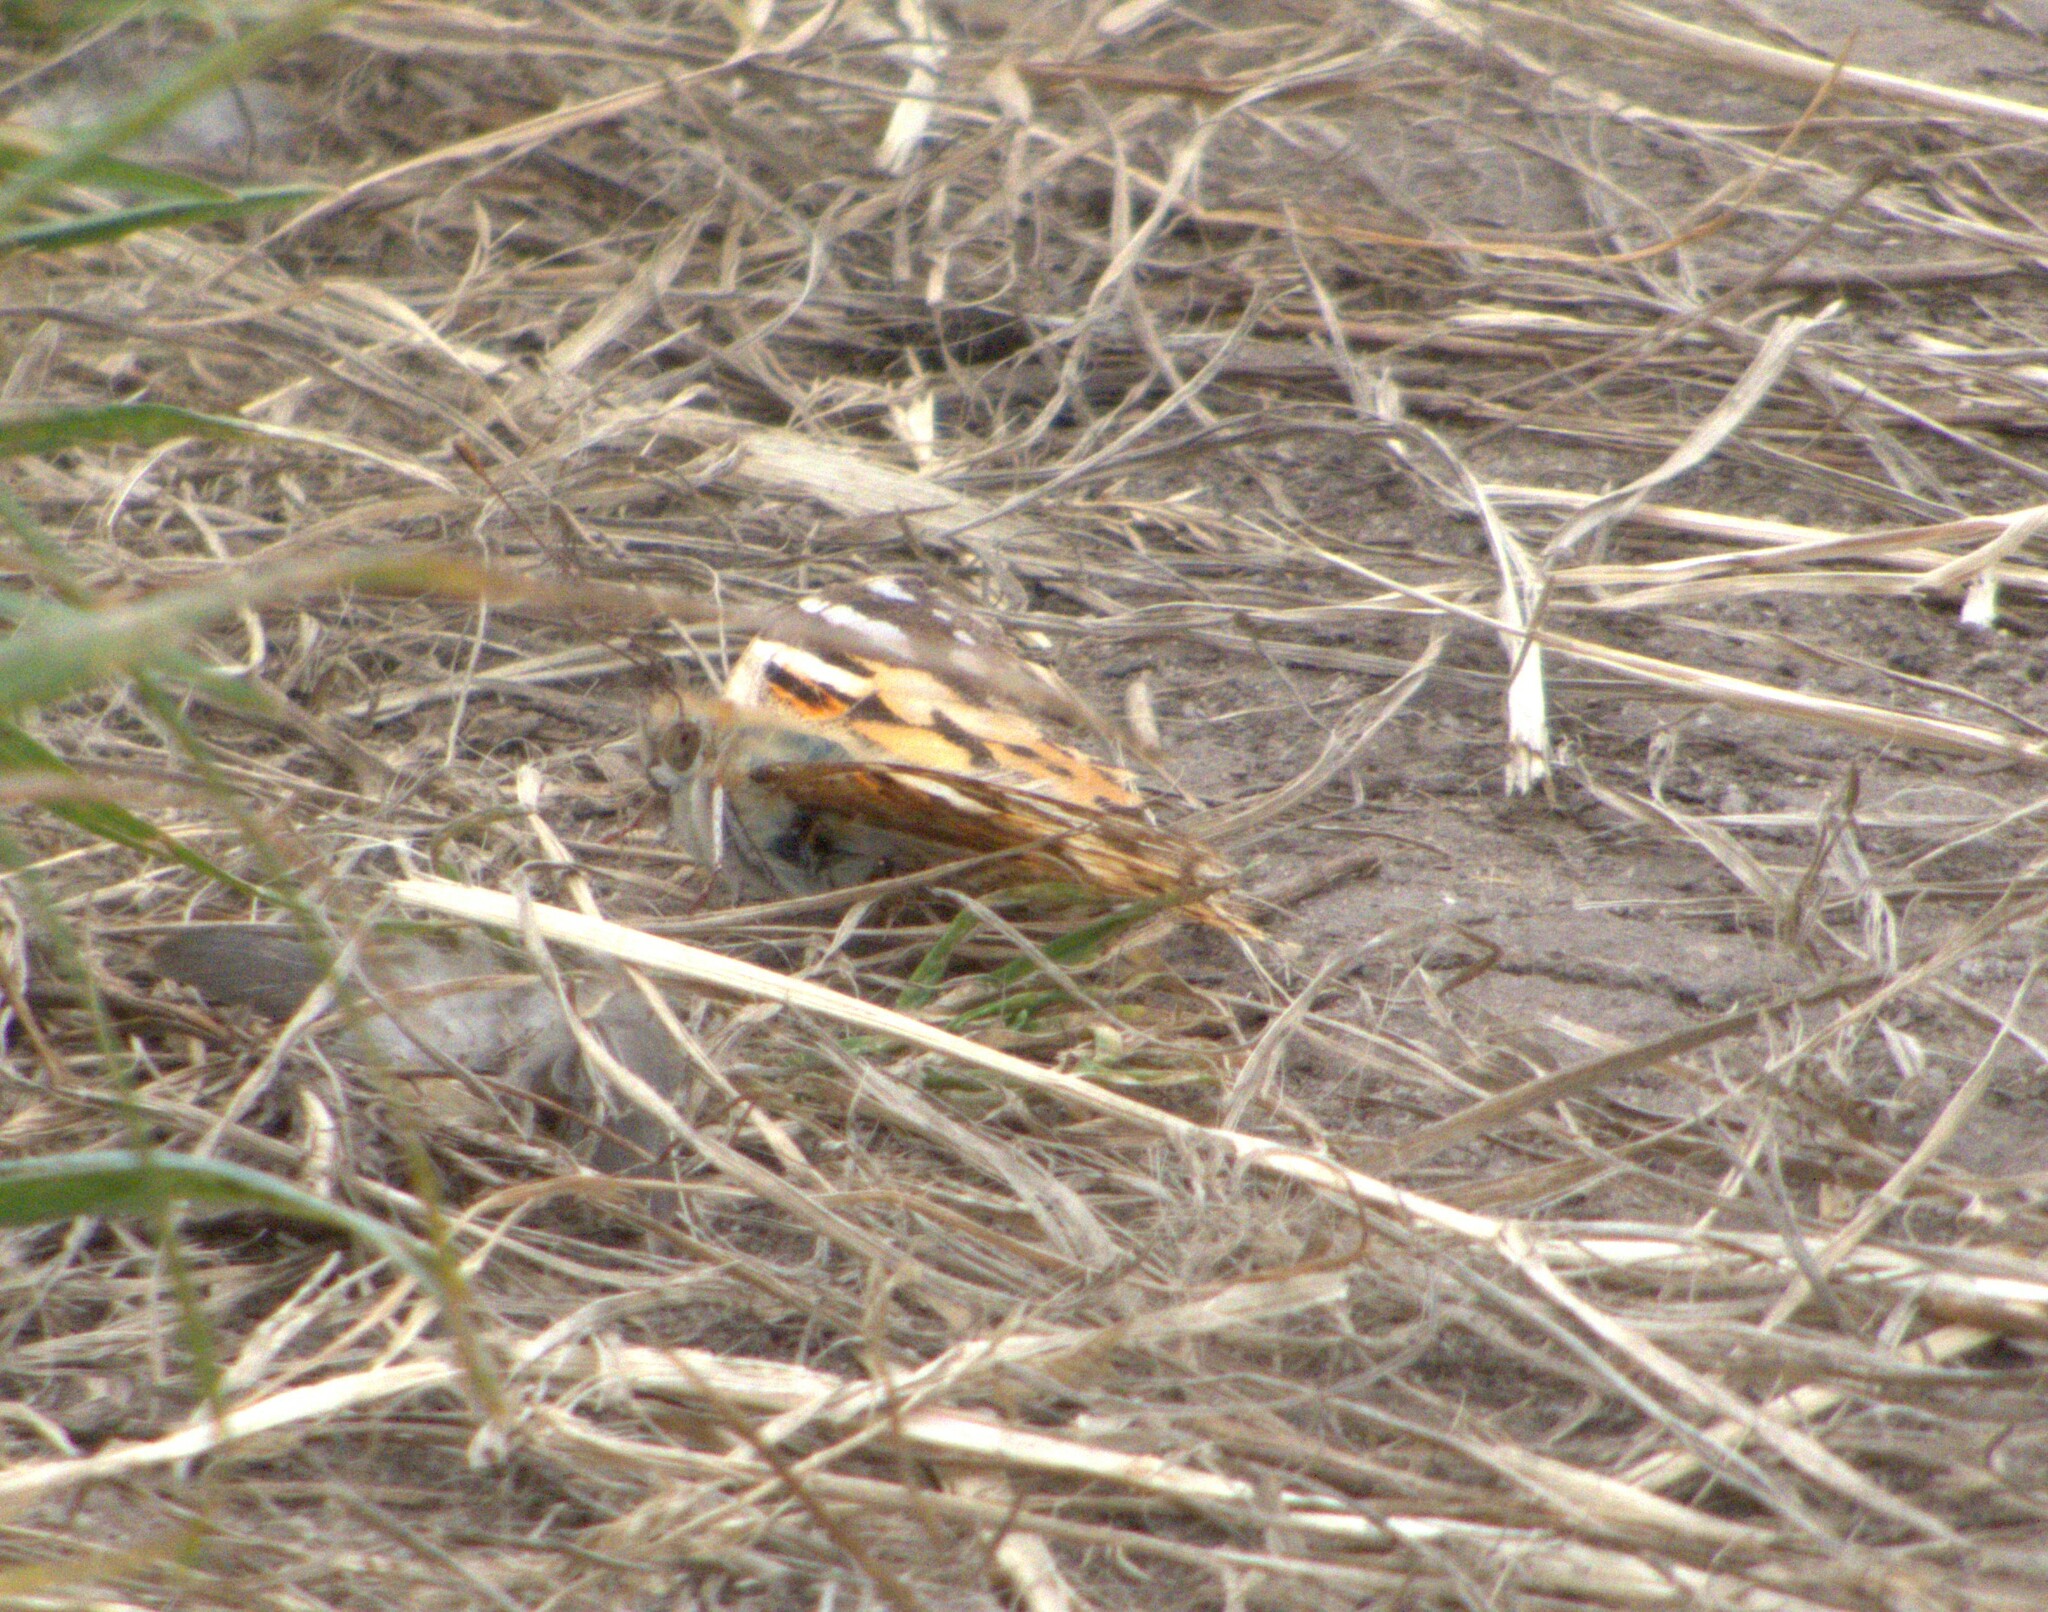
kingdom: Animalia
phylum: Arthropoda
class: Insecta
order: Lepidoptera
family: Nymphalidae
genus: Vanessa
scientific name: Vanessa cardui
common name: Painted lady
